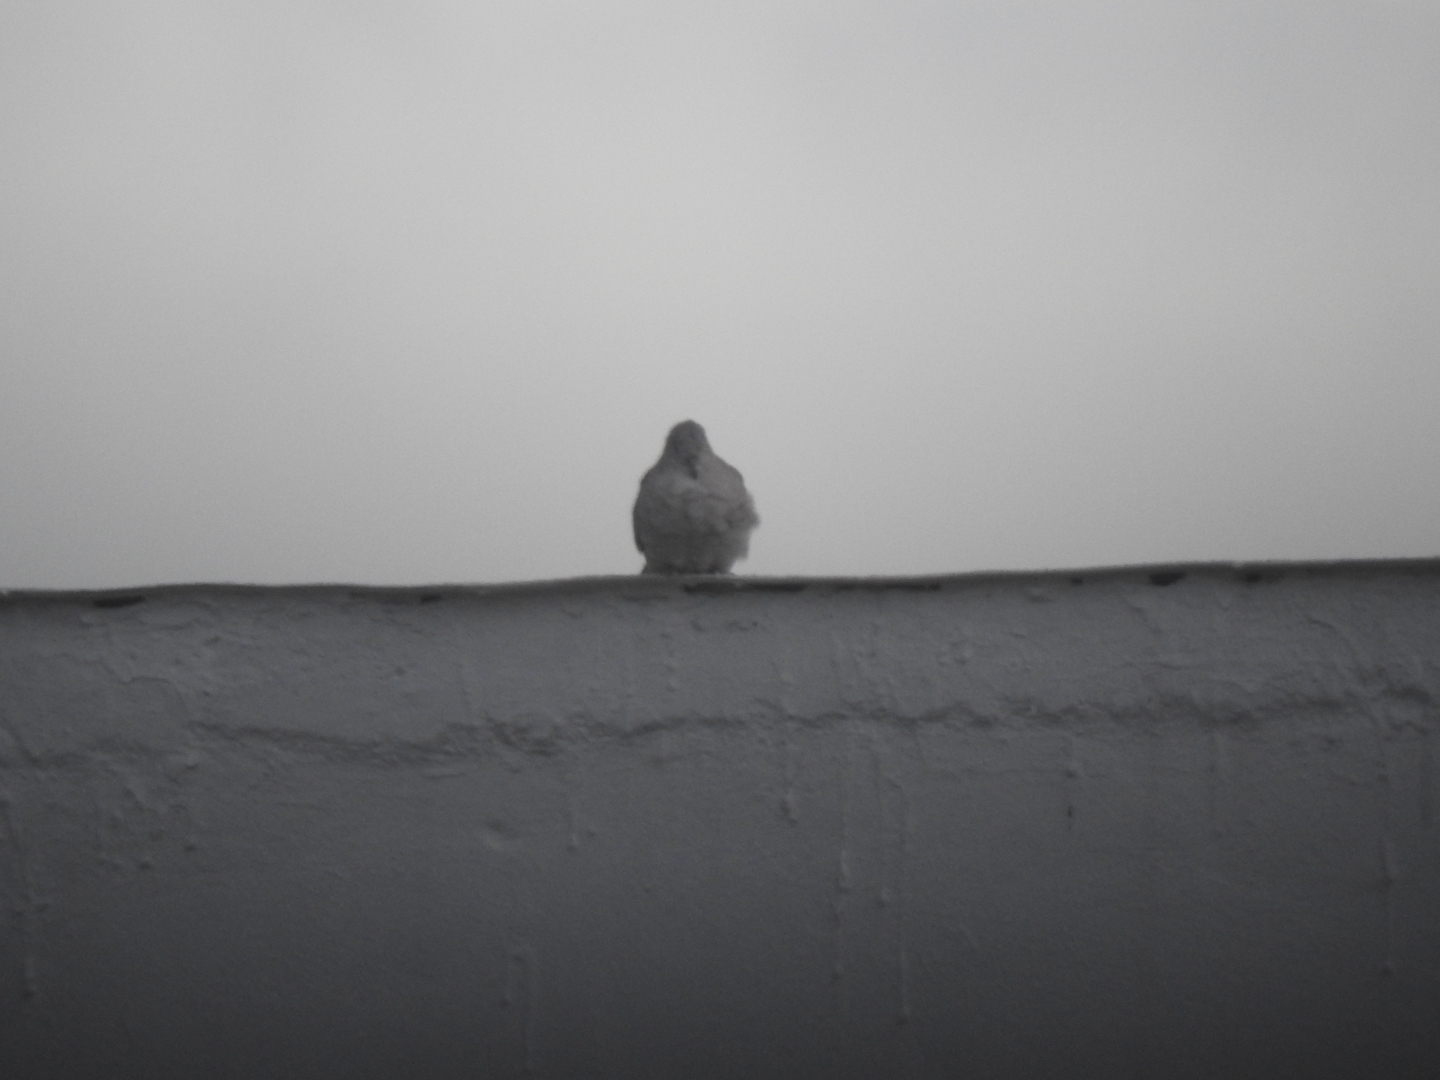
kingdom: Animalia
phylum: Chordata
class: Aves
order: Columbiformes
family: Columbidae
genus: Columbina
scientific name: Columbina inca
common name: Inca dove
